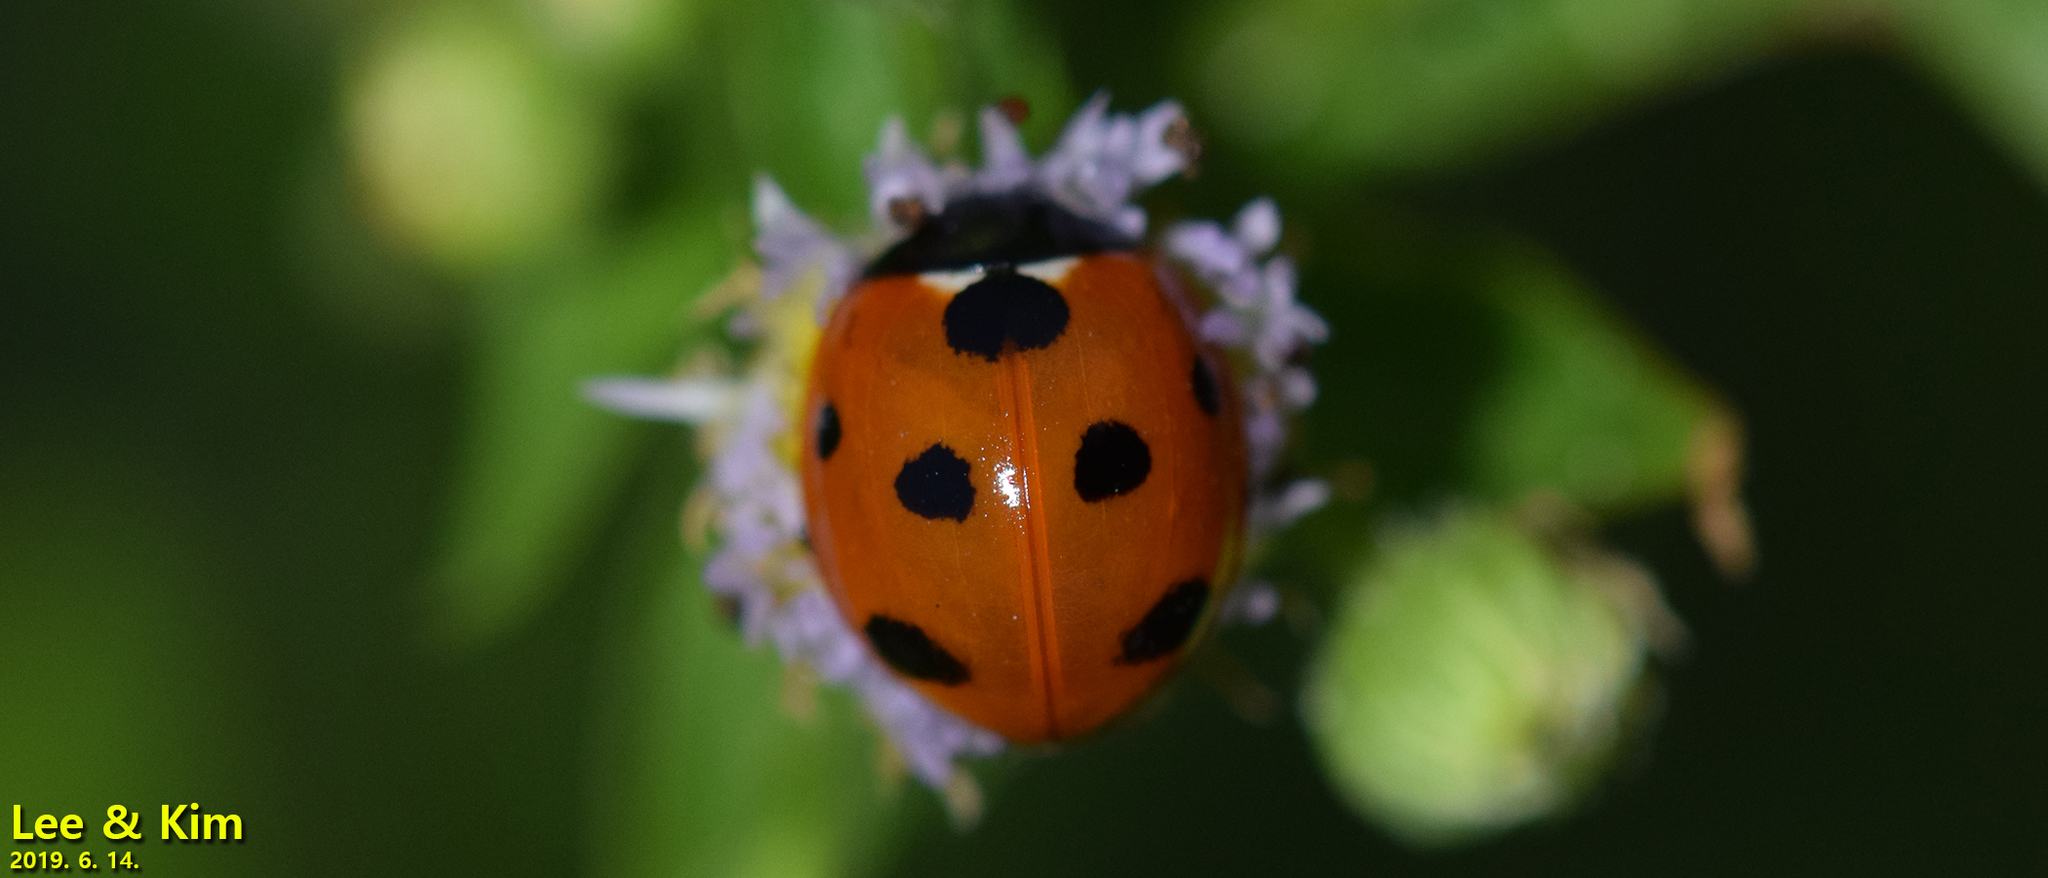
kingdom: Animalia
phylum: Arthropoda
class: Insecta
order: Coleoptera
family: Coccinellidae
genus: Coccinella
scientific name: Coccinella septempunctata
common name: Sevenspotted lady beetle
